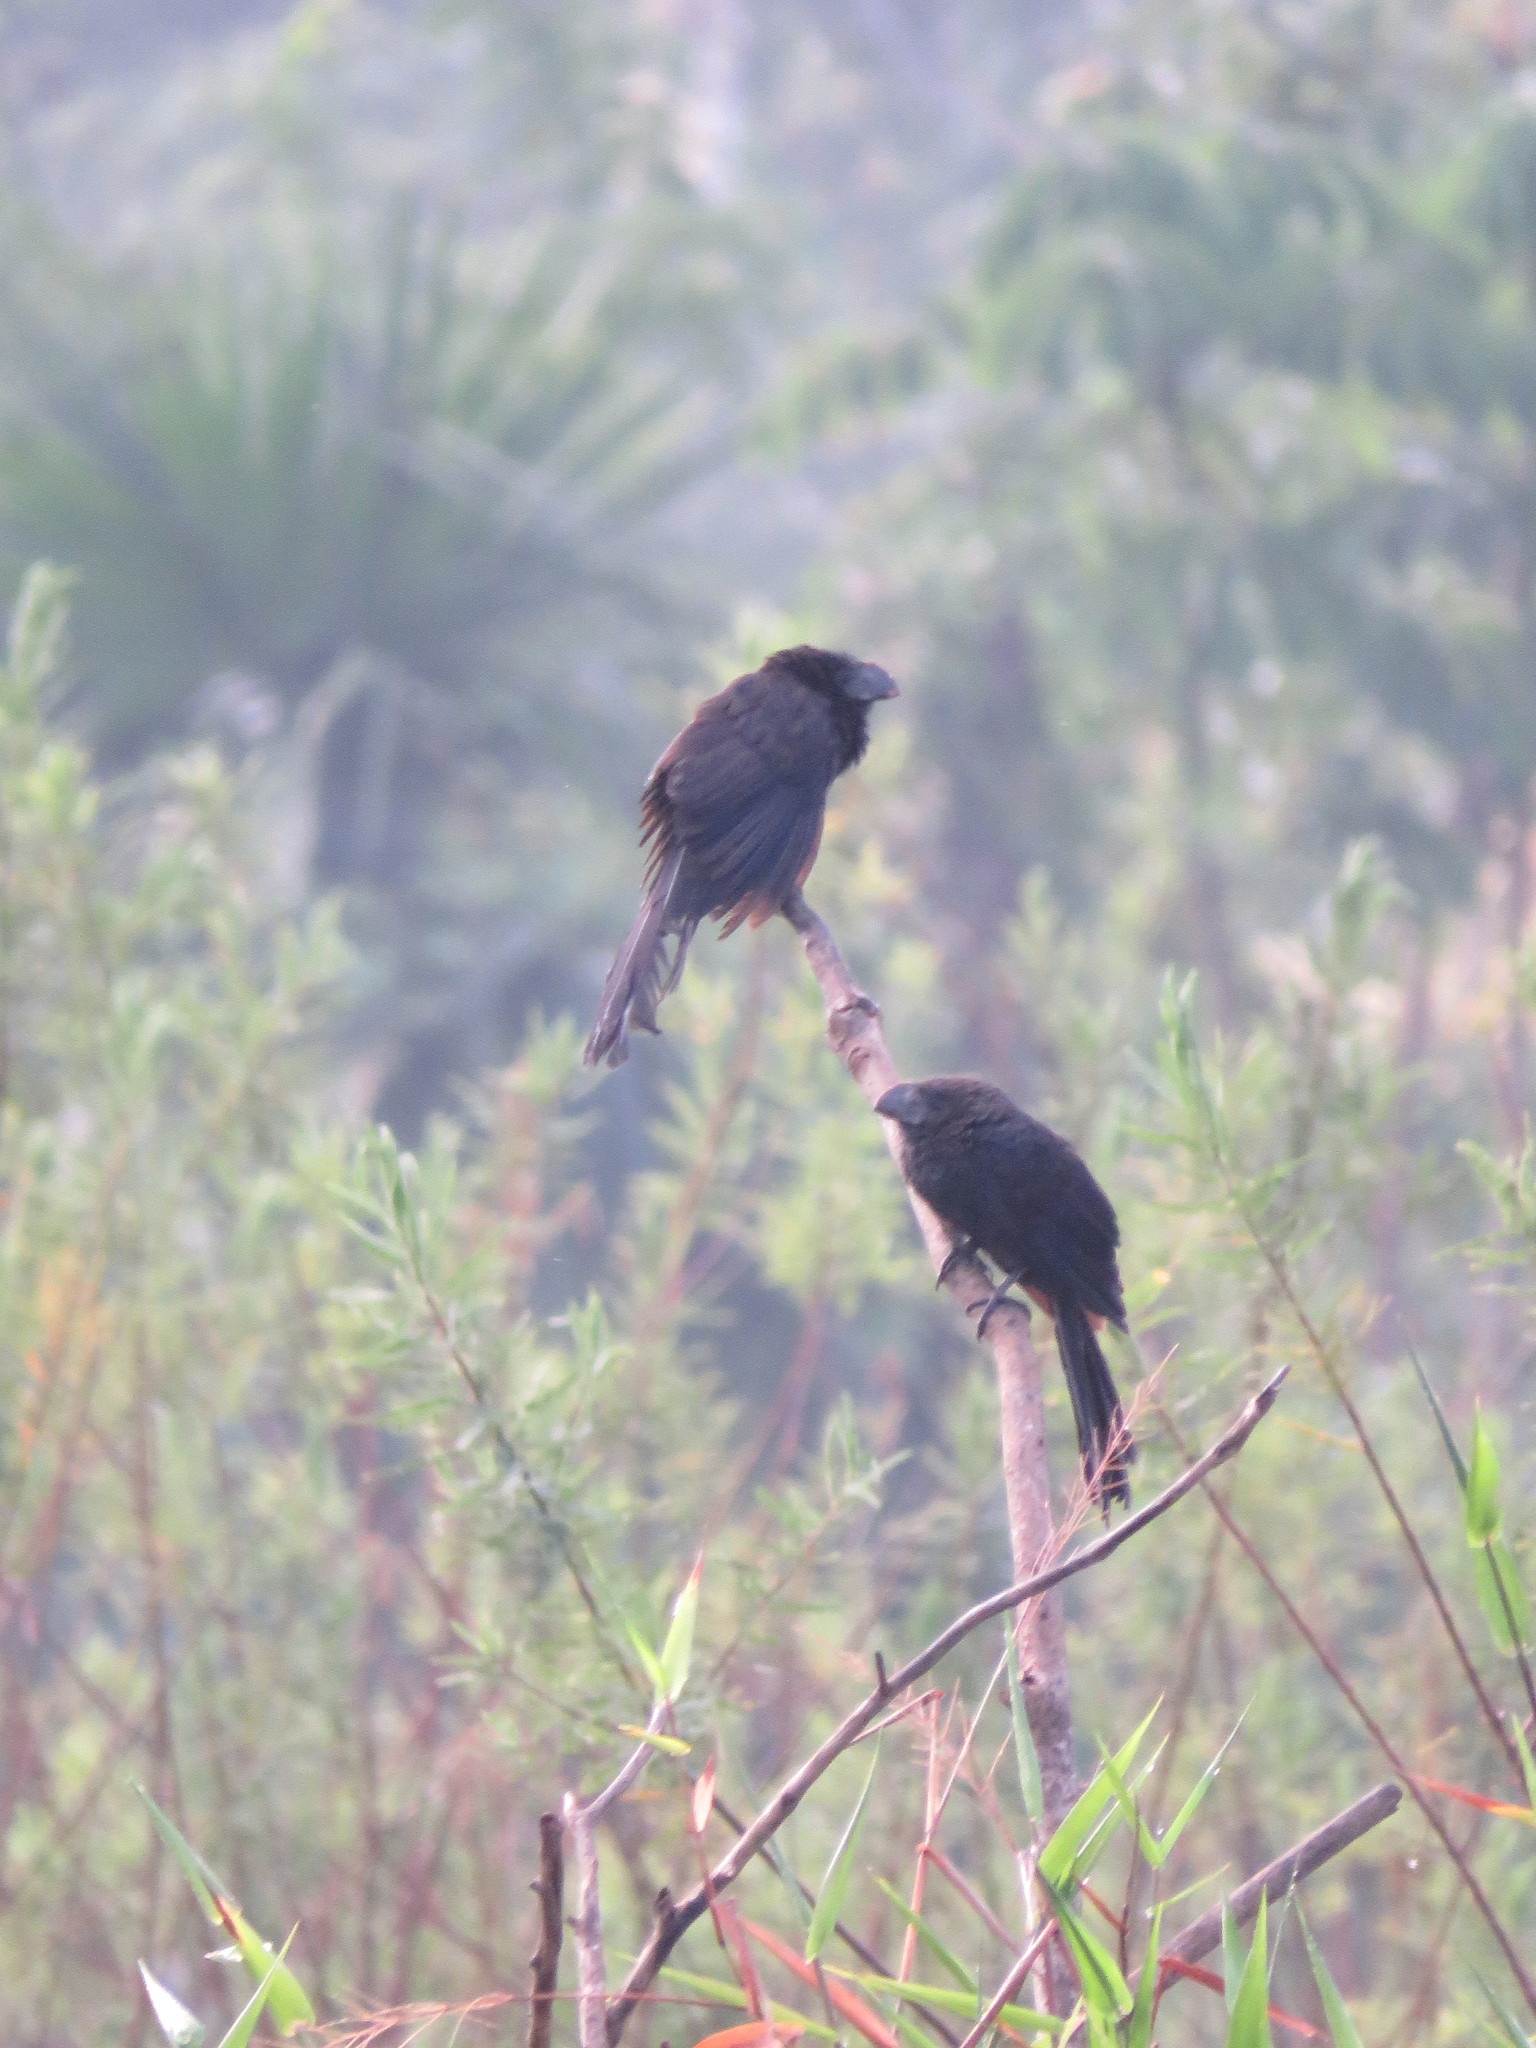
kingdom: Animalia
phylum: Chordata
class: Aves
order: Cuculiformes
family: Cuculidae
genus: Crotophaga
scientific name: Crotophaga ani
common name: Smooth-billed ani
